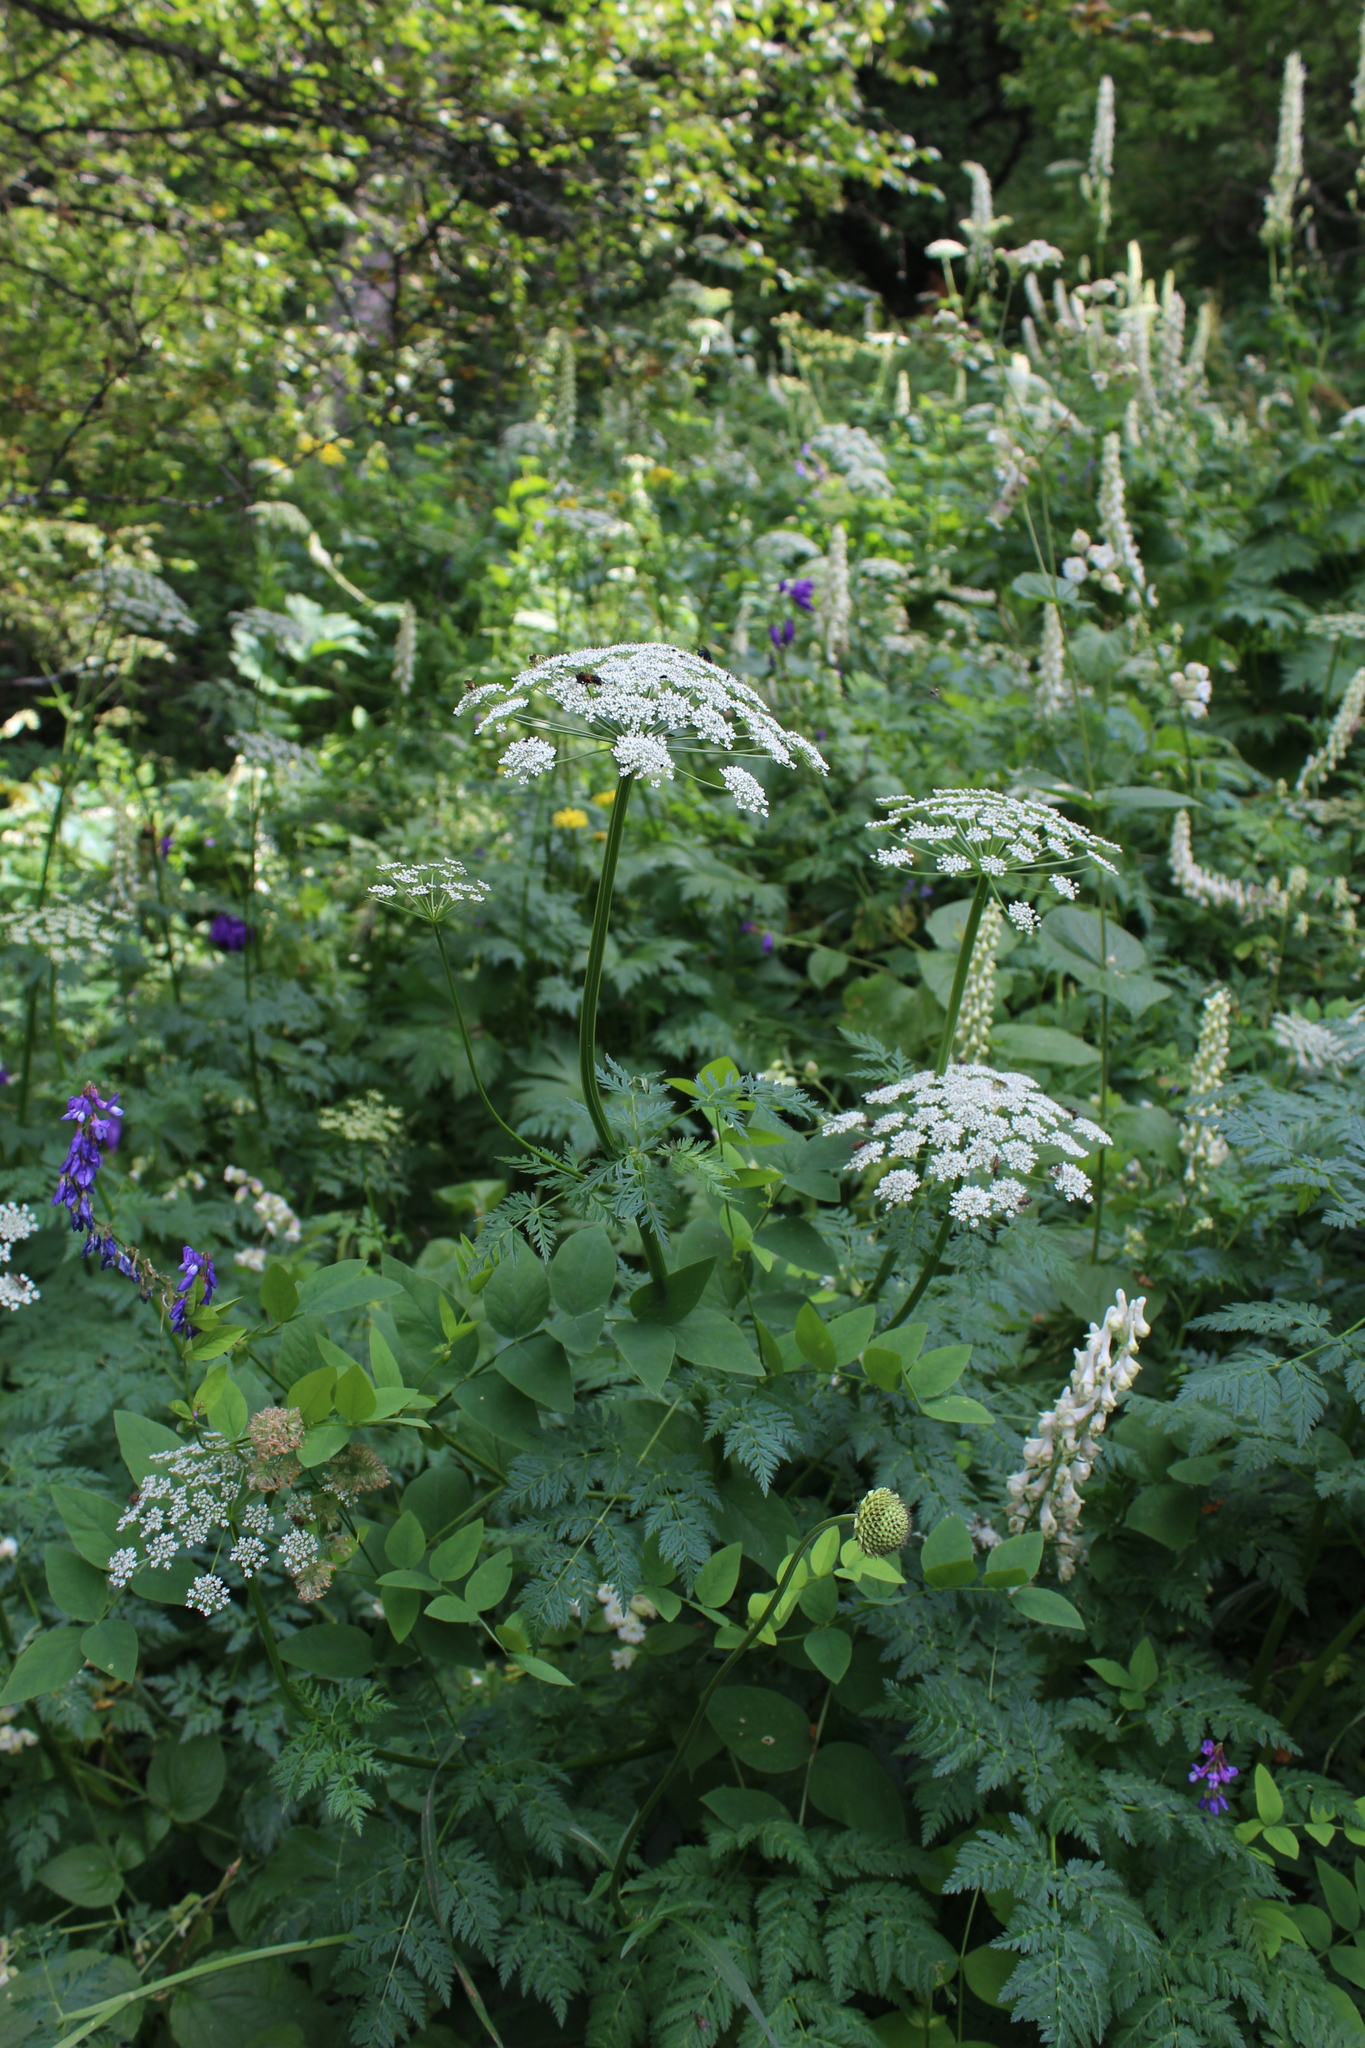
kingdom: Plantae
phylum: Tracheophyta
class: Magnoliopsida
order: Apiales
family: Apiaceae
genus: Selinum
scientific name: Selinum alatum
